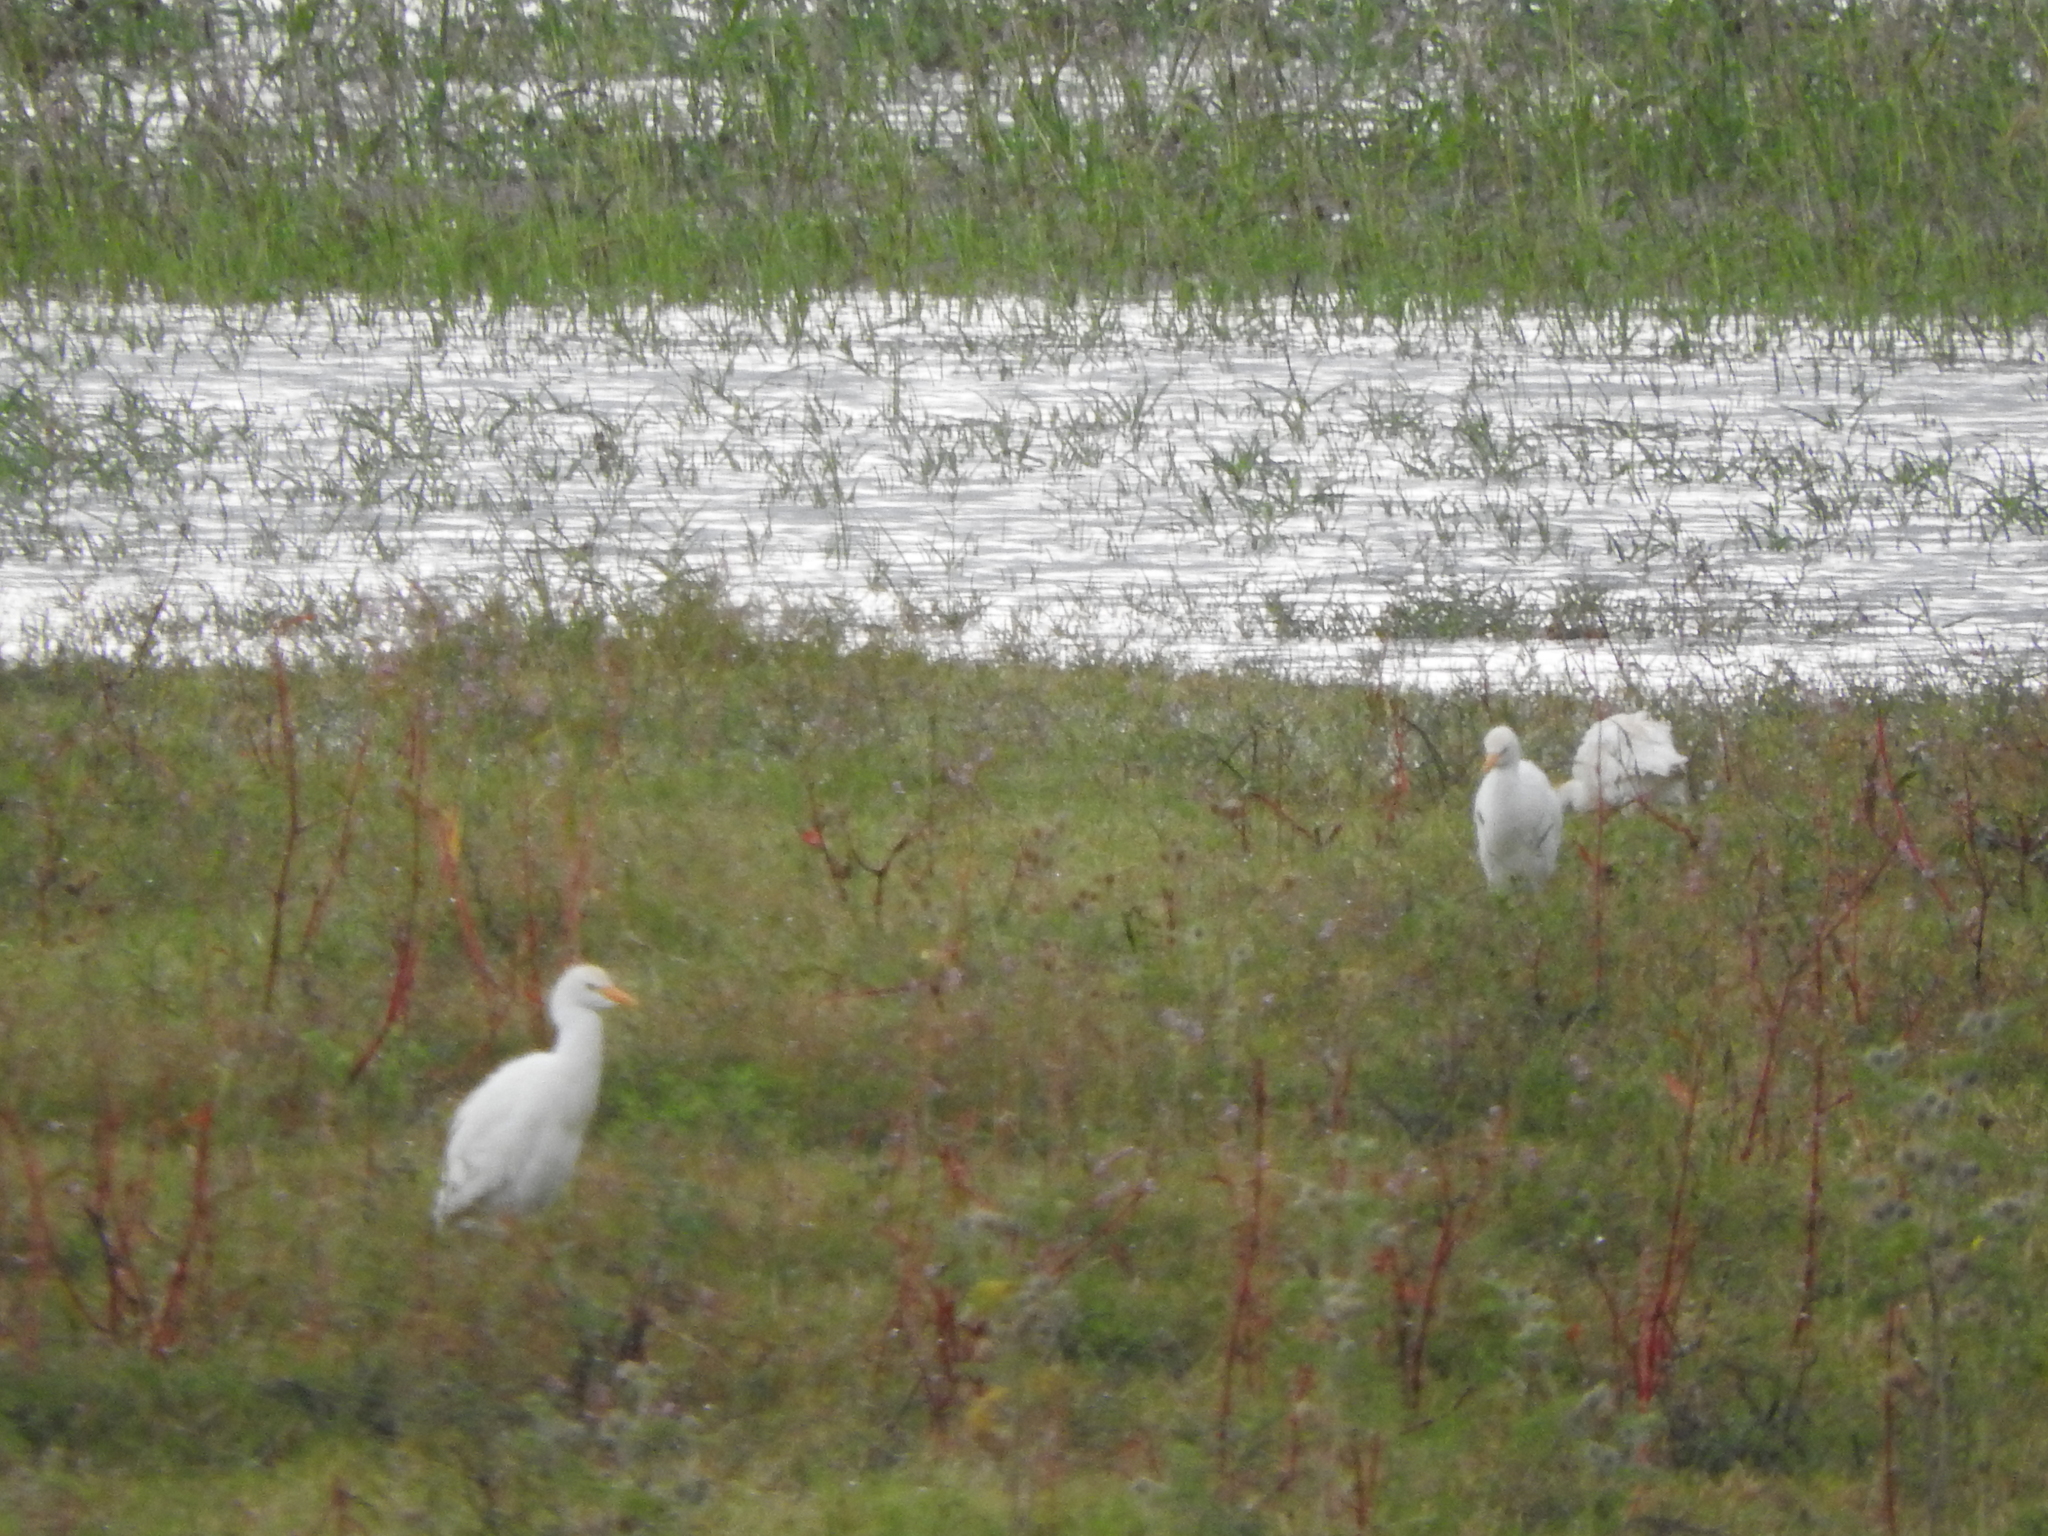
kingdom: Animalia
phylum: Chordata
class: Aves
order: Pelecaniformes
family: Ardeidae
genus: Bubulcus
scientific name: Bubulcus ibis
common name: Cattle egret
